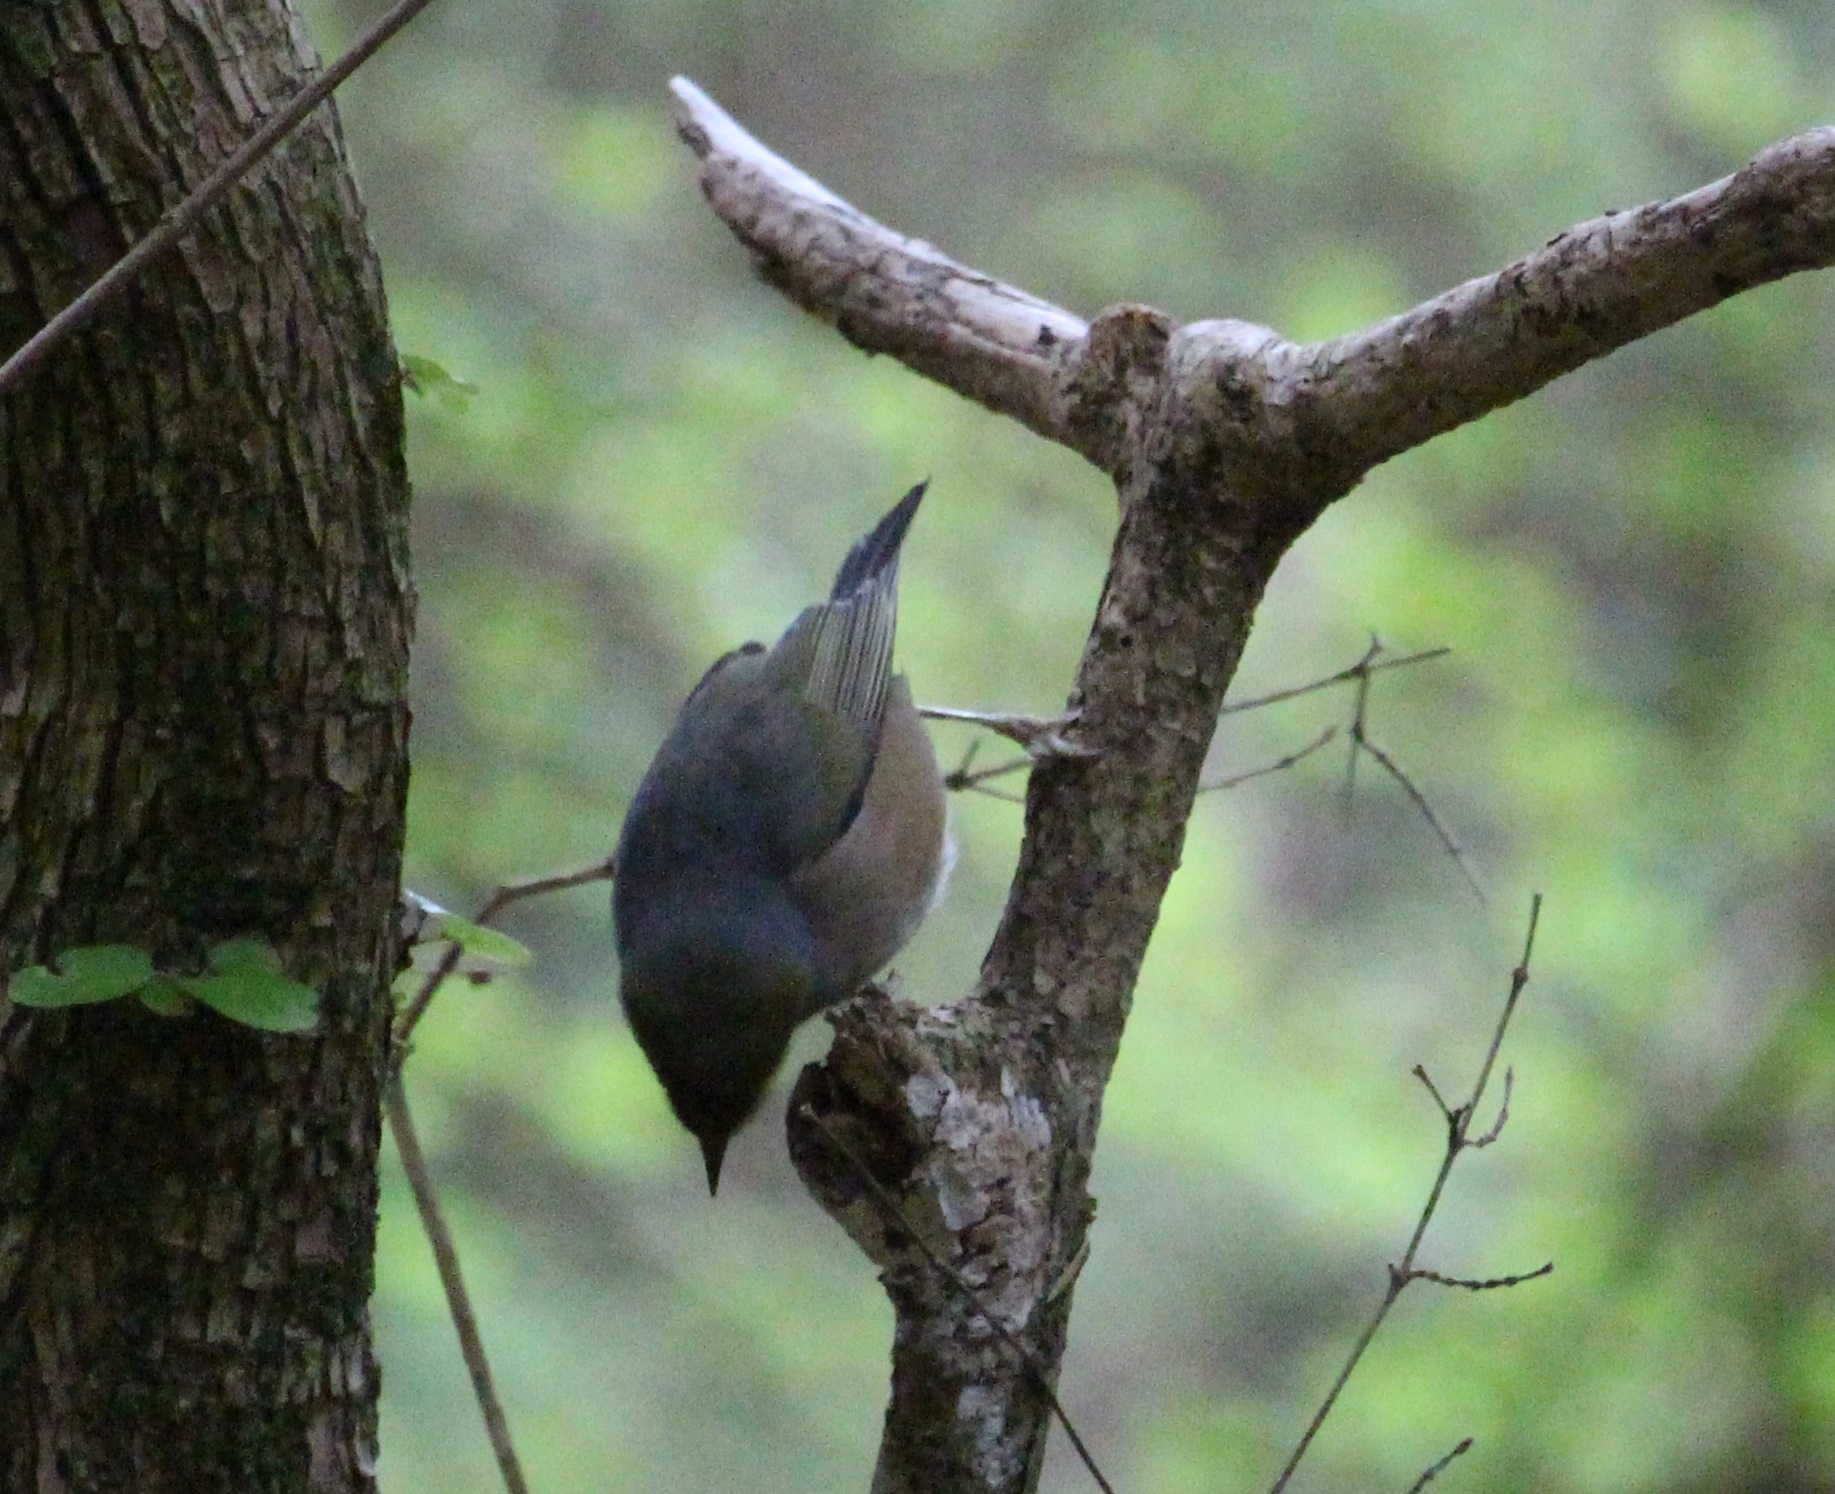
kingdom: Animalia
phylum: Chordata
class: Aves
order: Passeriformes
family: Acanthizidae
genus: Finschia
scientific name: Finschia novaeseelandiae
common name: Pipipi
